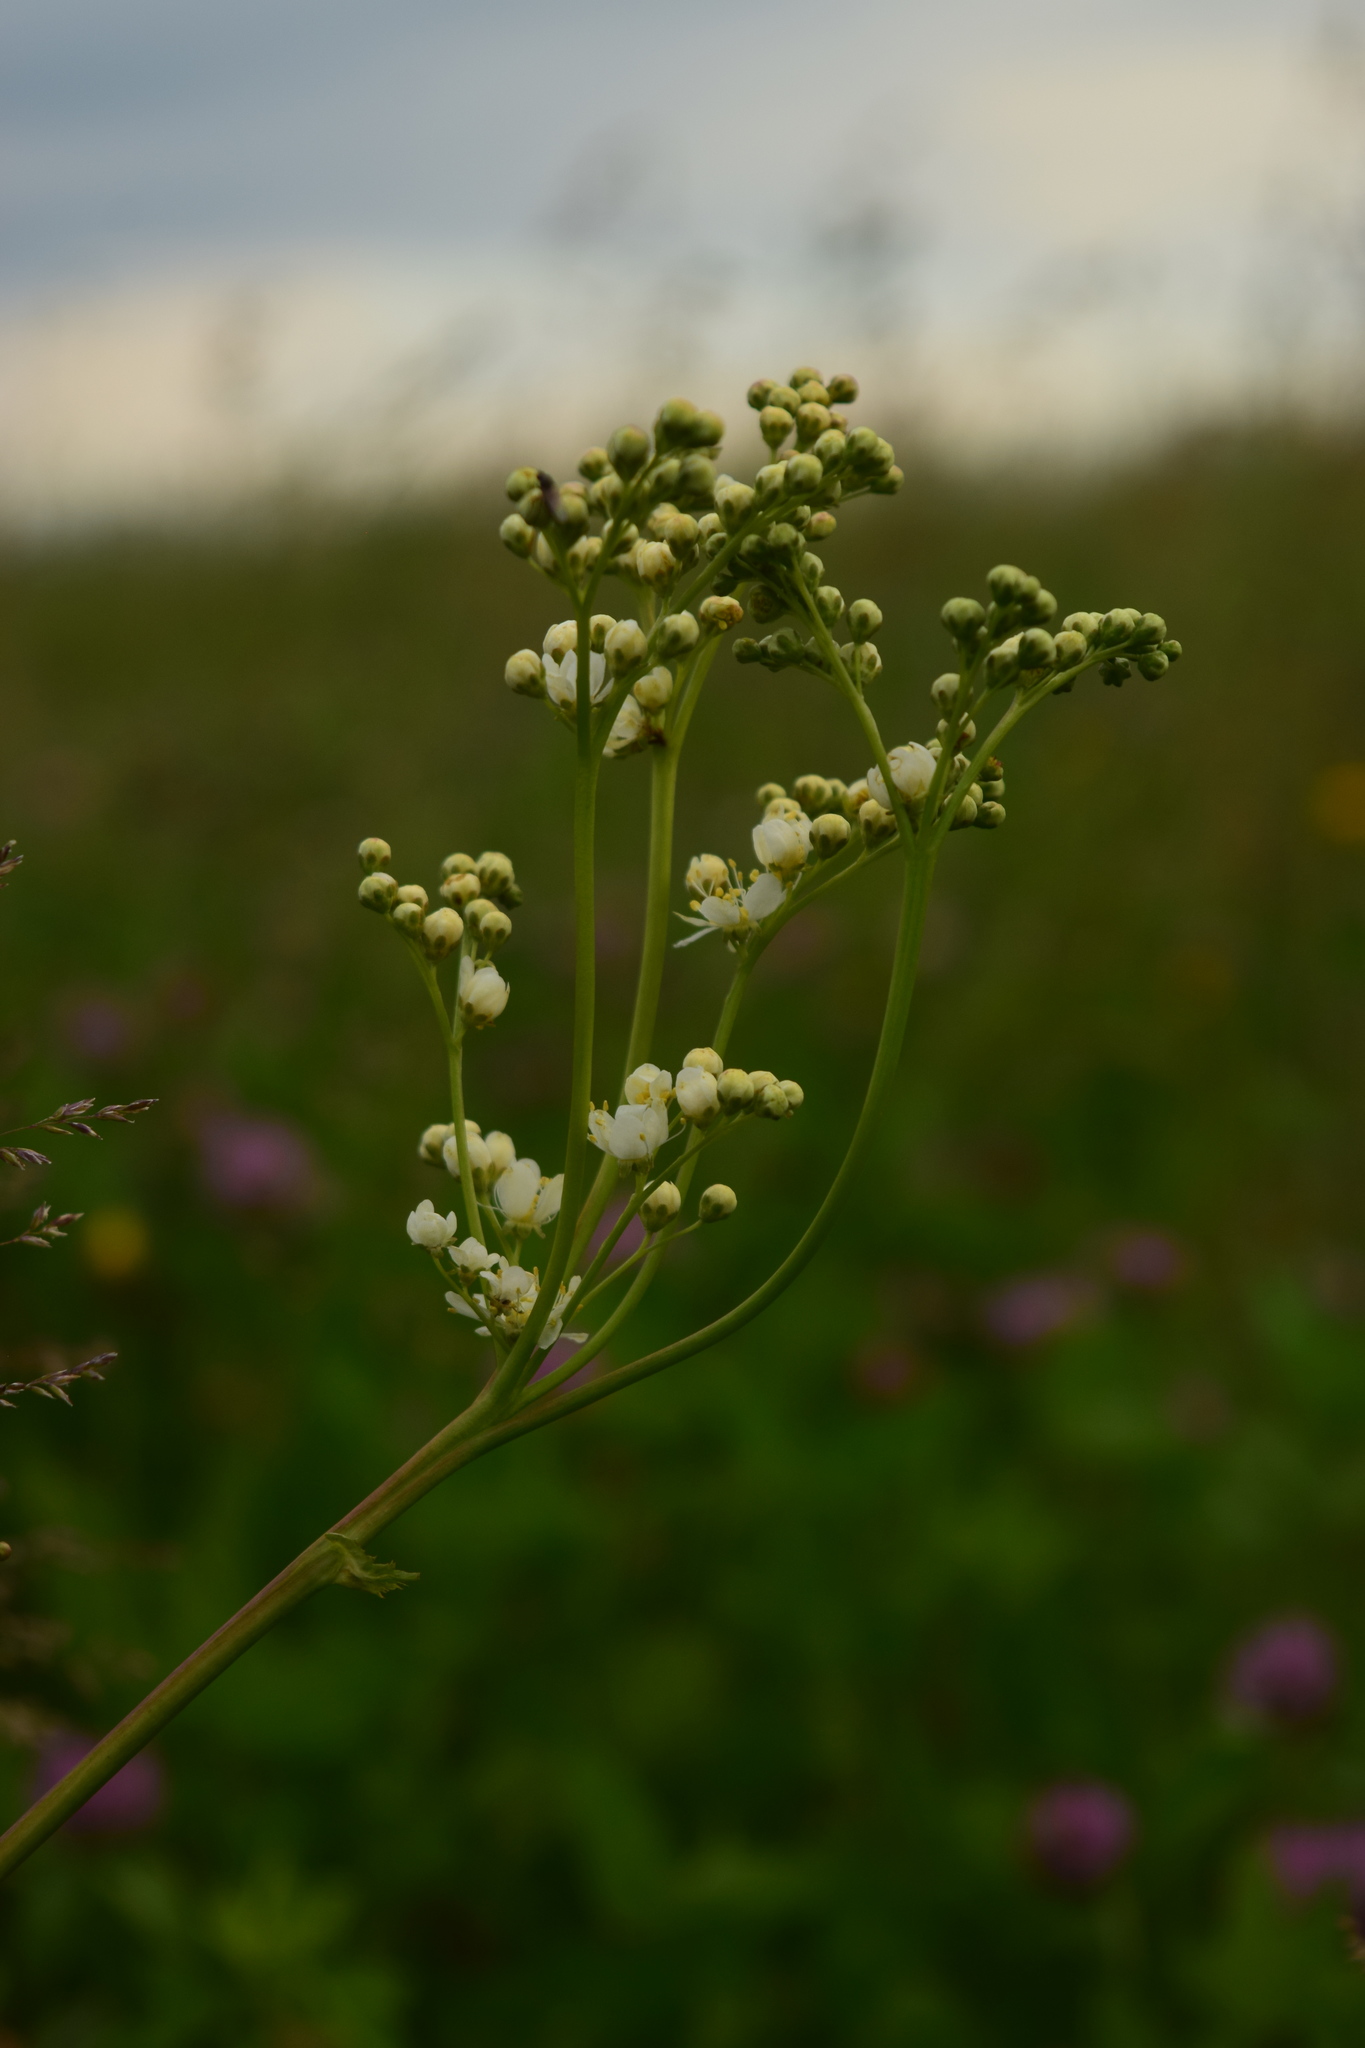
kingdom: Plantae
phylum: Tracheophyta
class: Magnoliopsida
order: Rosales
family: Rosaceae
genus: Filipendula
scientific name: Filipendula vulgaris
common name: Dropwort
